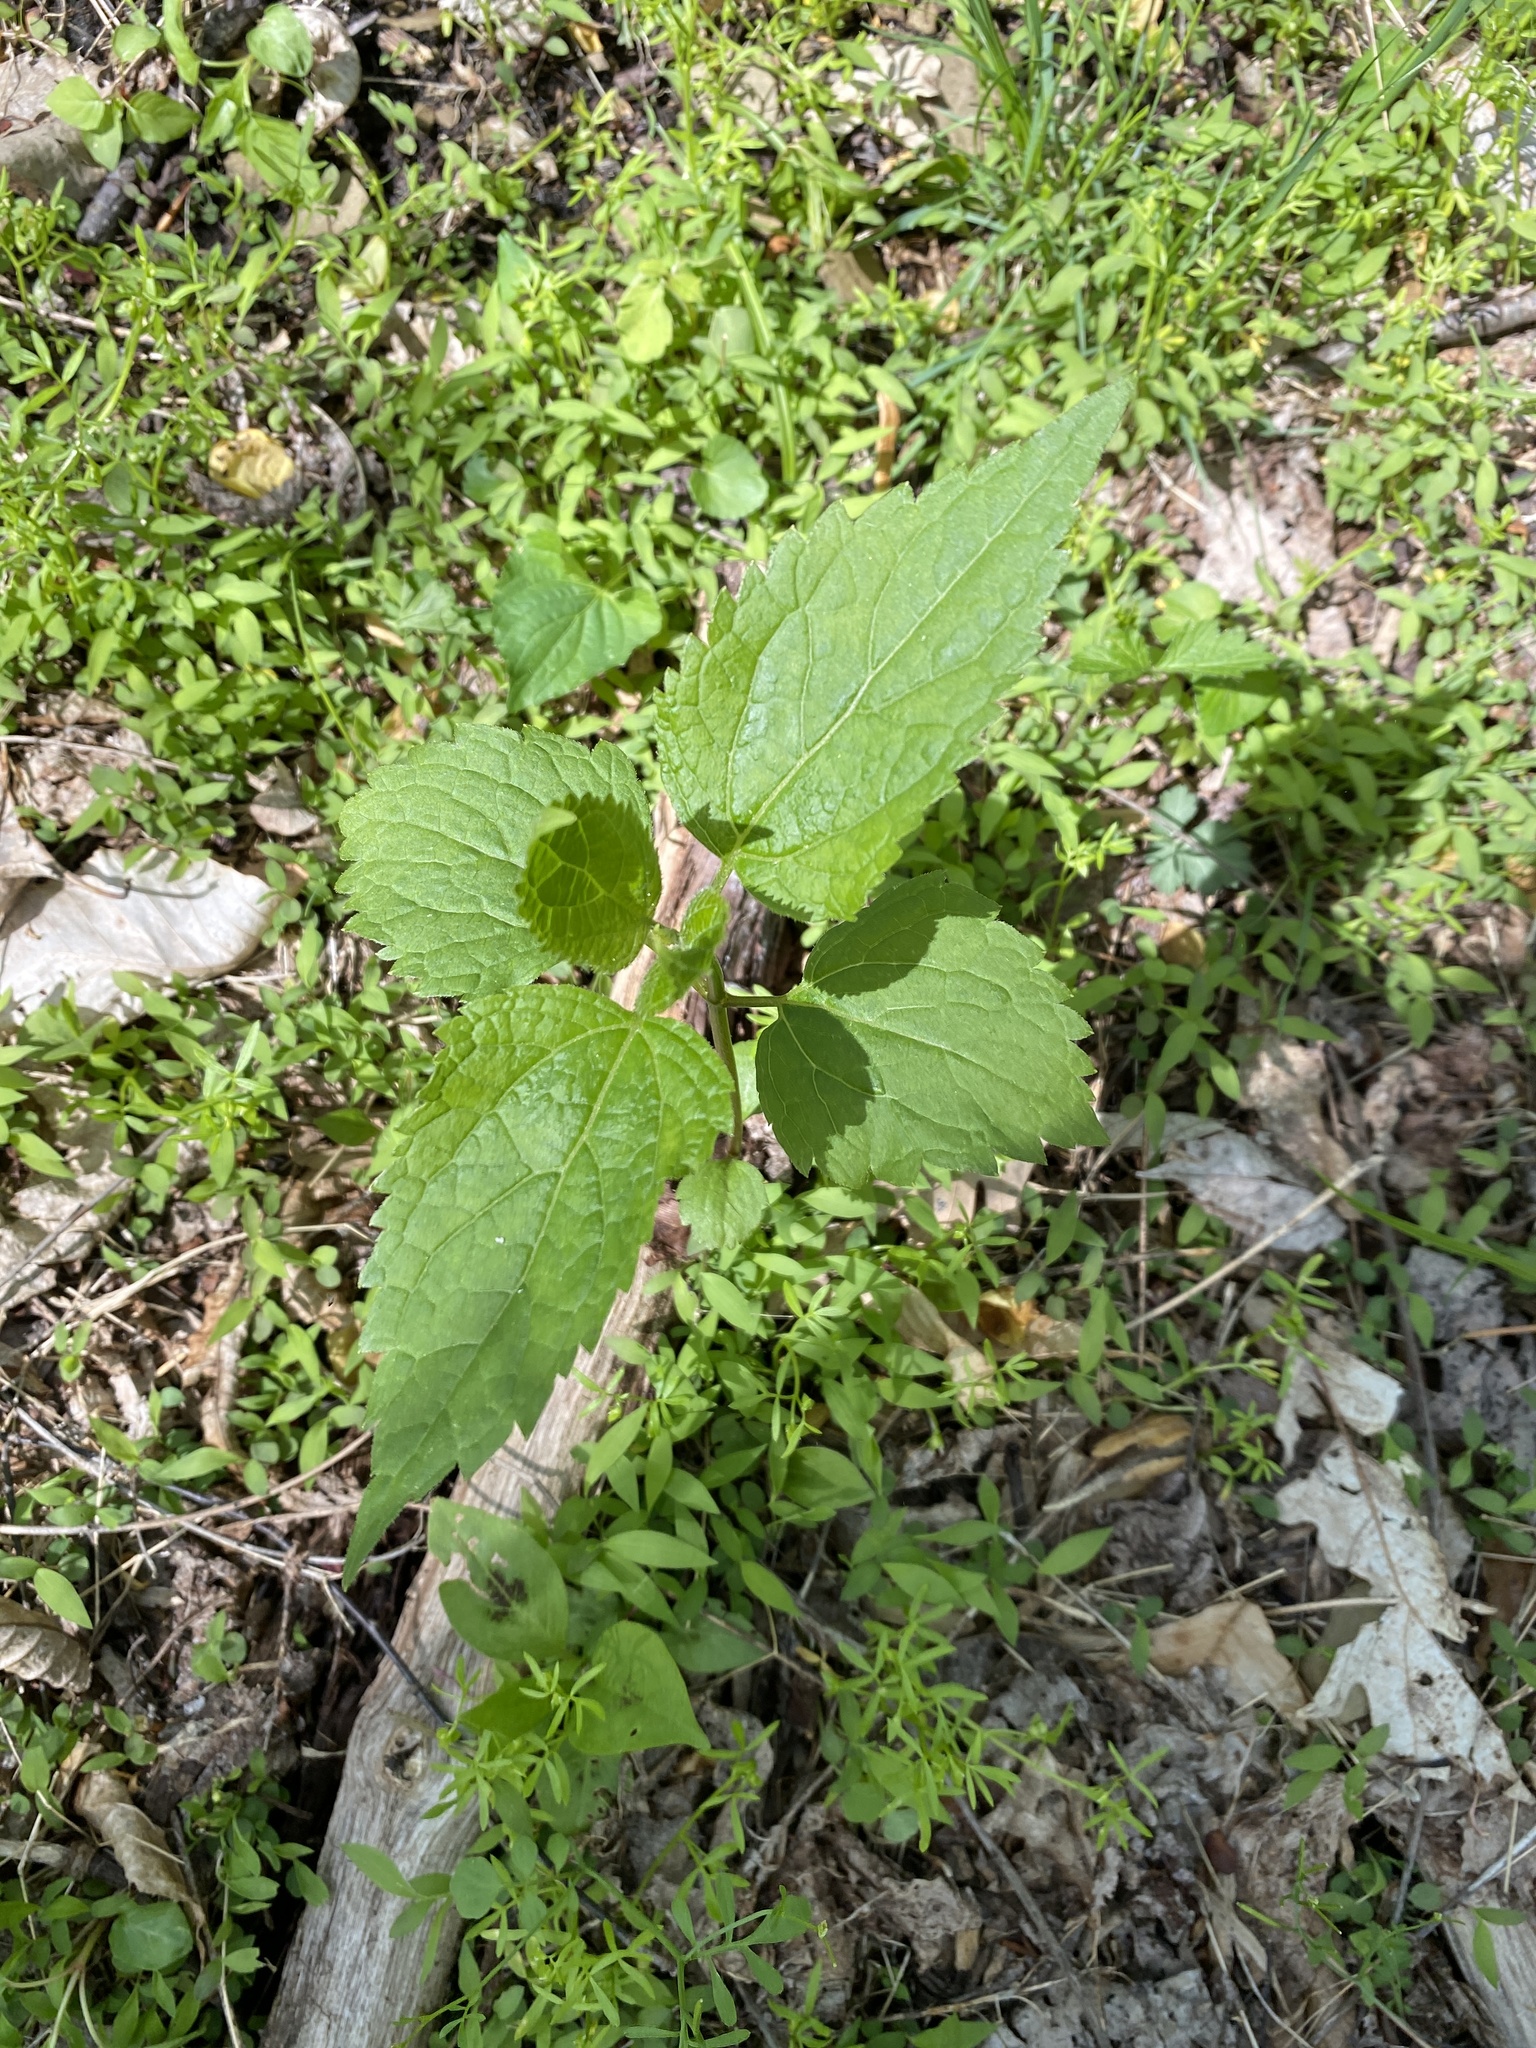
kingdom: Plantae
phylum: Tracheophyta
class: Magnoliopsida
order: Asterales
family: Asteraceae
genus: Ageratina
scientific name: Ageratina altissima
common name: White snakeroot
